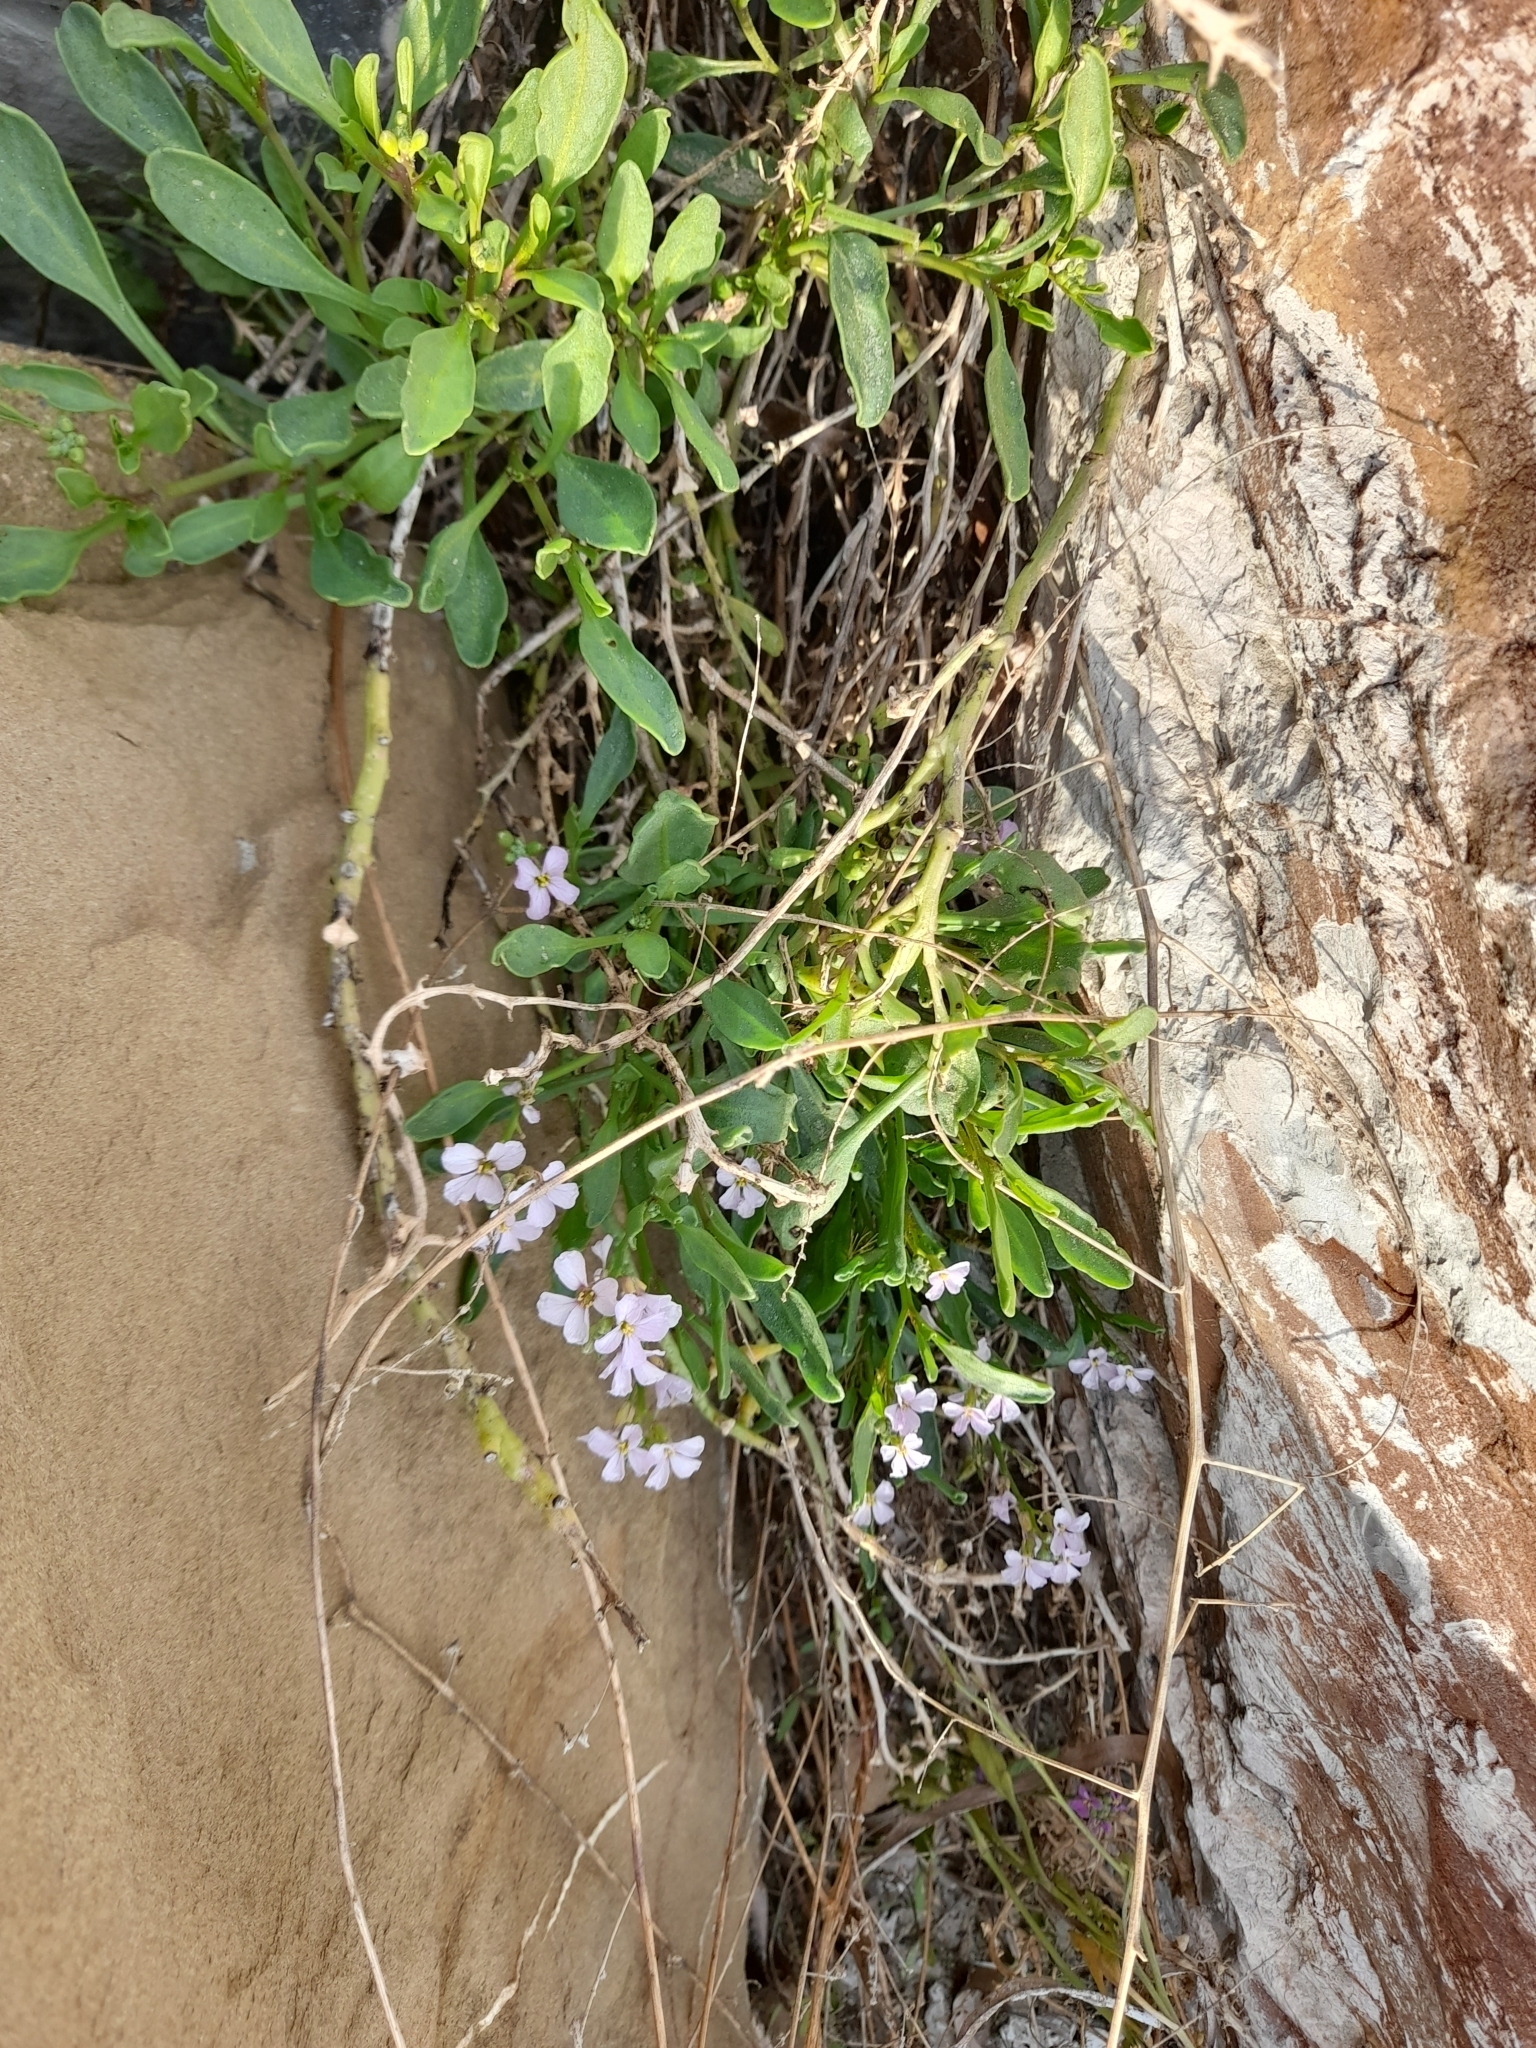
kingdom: Plantae
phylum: Tracheophyta
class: Magnoliopsida
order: Brassicales
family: Brassicaceae
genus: Cakile
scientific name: Cakile maritima
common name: Sea rocket
